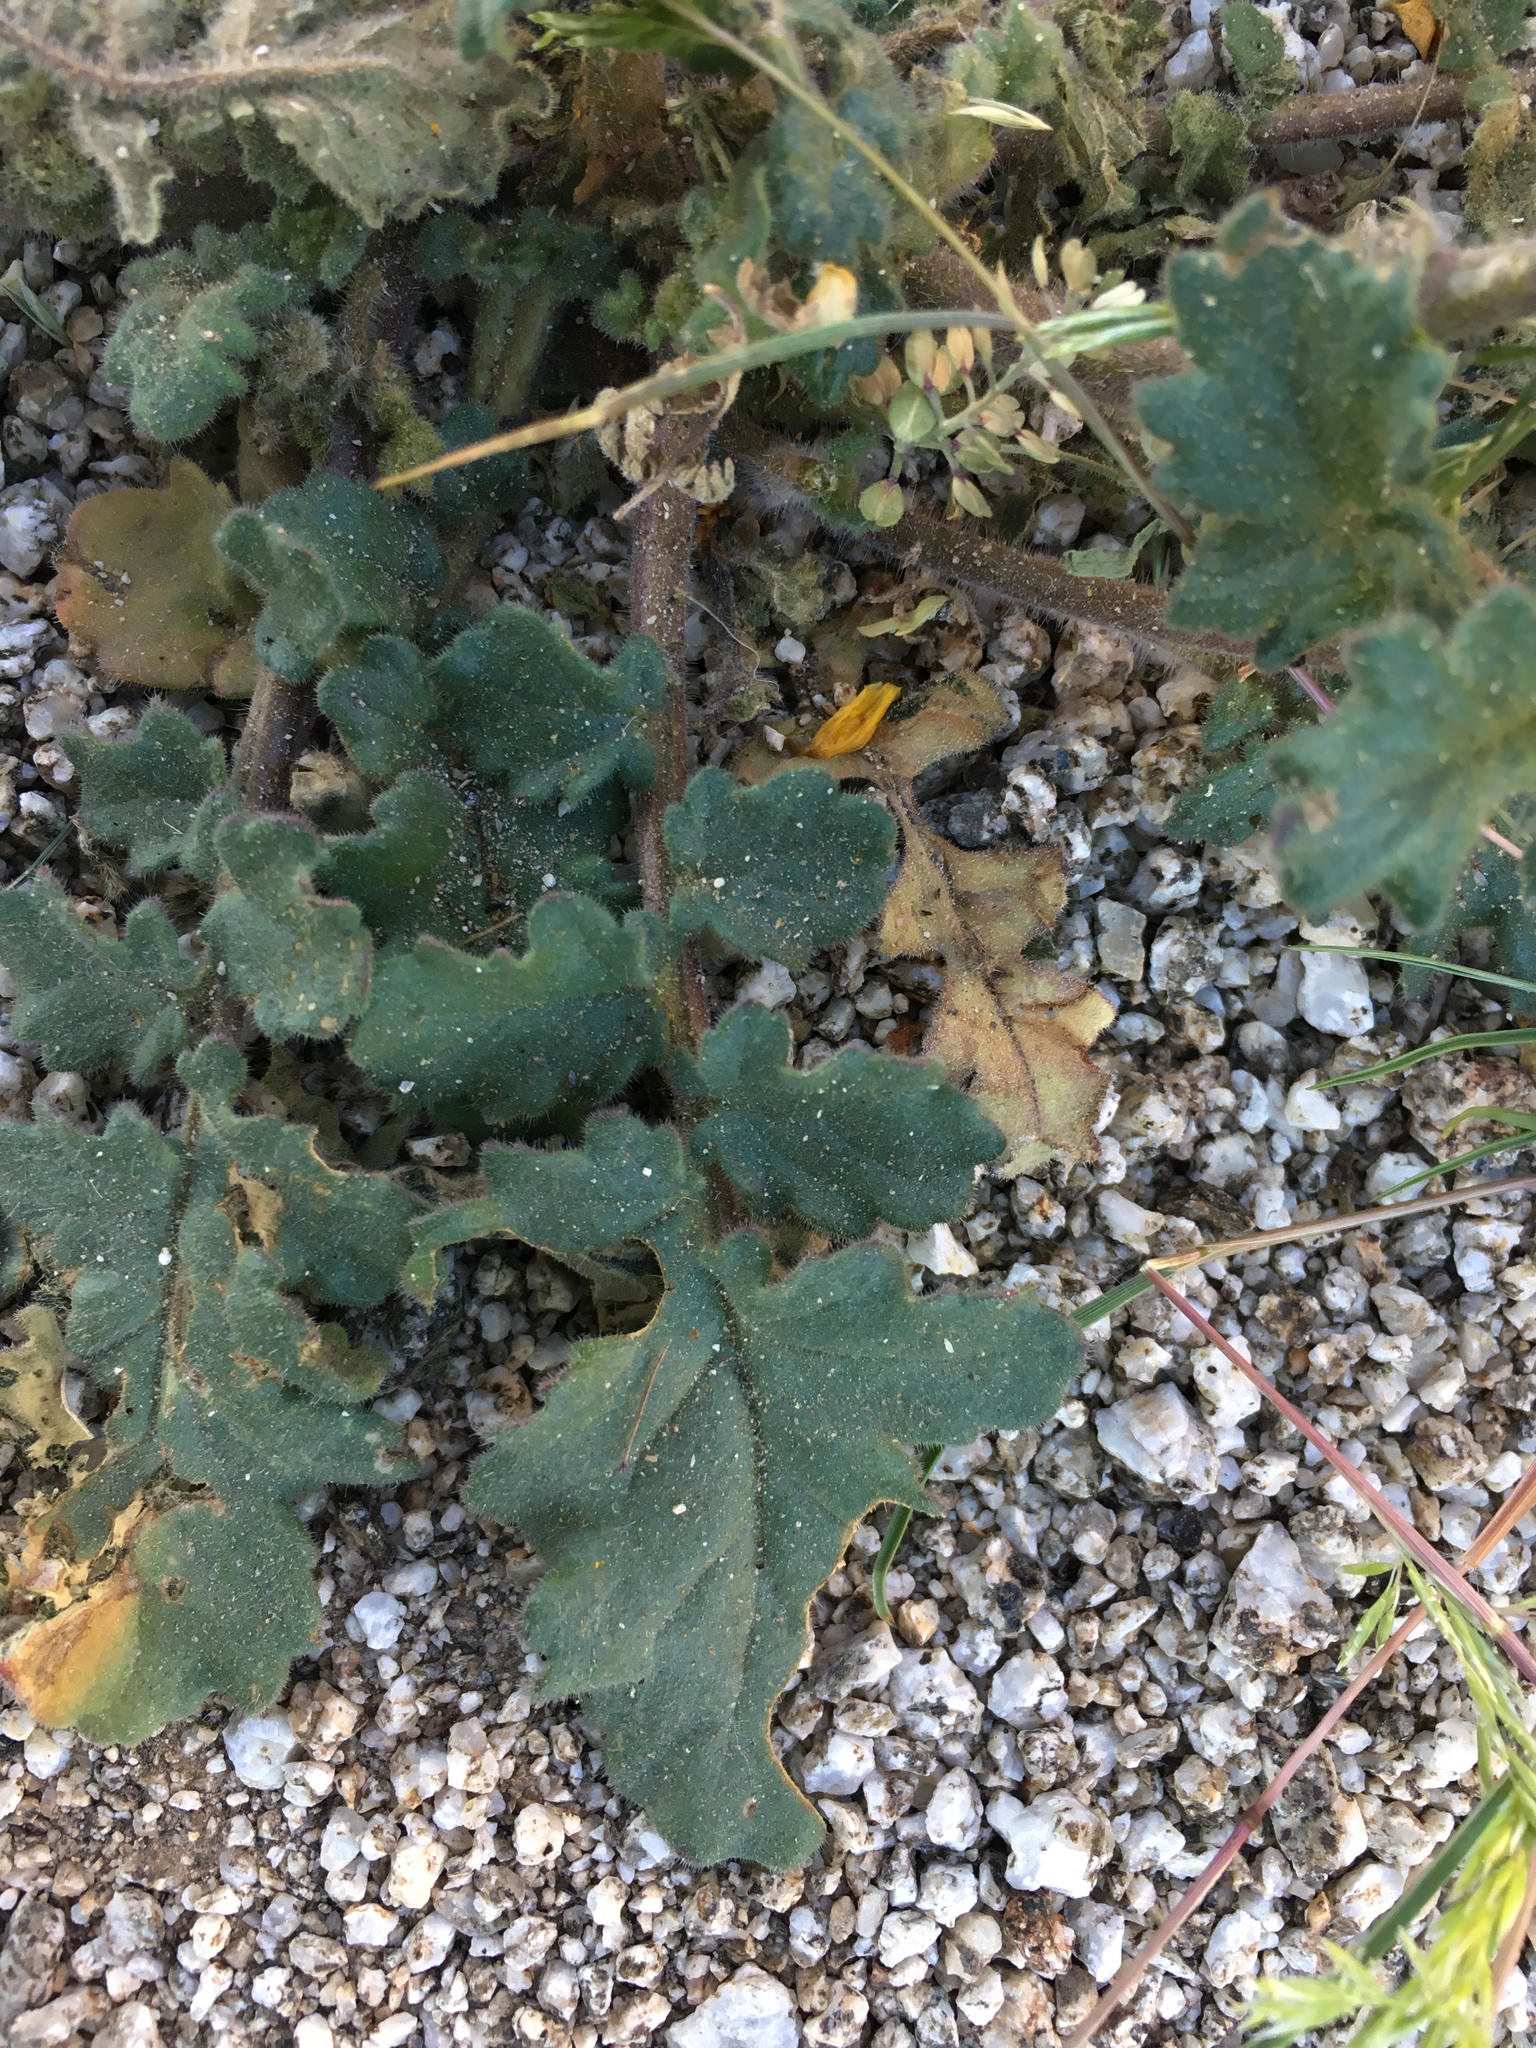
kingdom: Plantae
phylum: Tracheophyta
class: Magnoliopsida
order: Boraginales
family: Hydrophyllaceae
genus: Phacelia
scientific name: Phacelia crenulata
